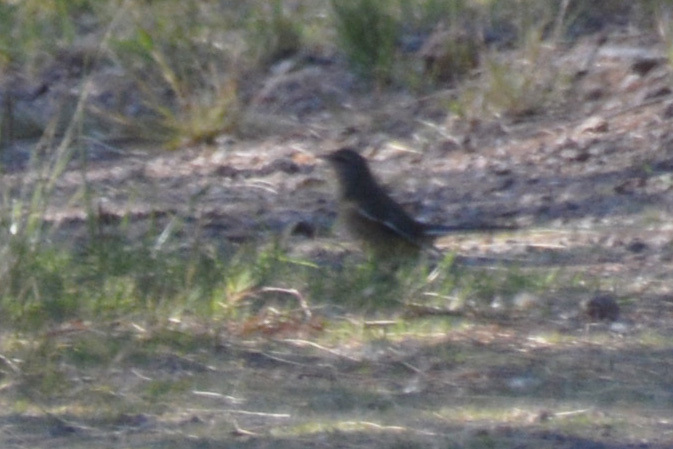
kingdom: Animalia
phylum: Chordata
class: Aves
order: Passeriformes
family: Mimidae
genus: Mimus
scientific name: Mimus triurus
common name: White-banded mockingbird
